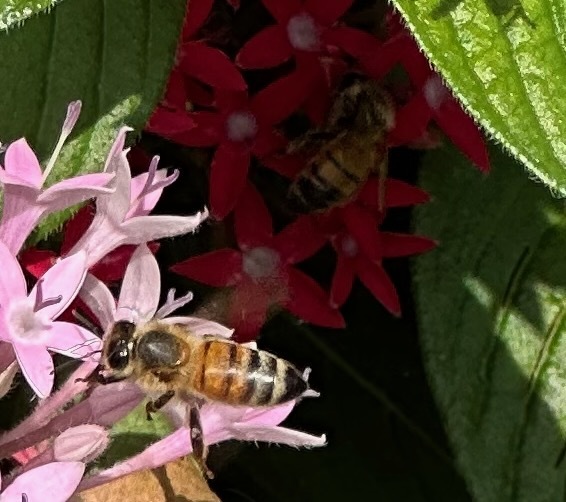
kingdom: Animalia
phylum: Arthropoda
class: Insecta
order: Hymenoptera
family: Apidae
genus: Apis
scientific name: Apis mellifera
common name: Honey bee
